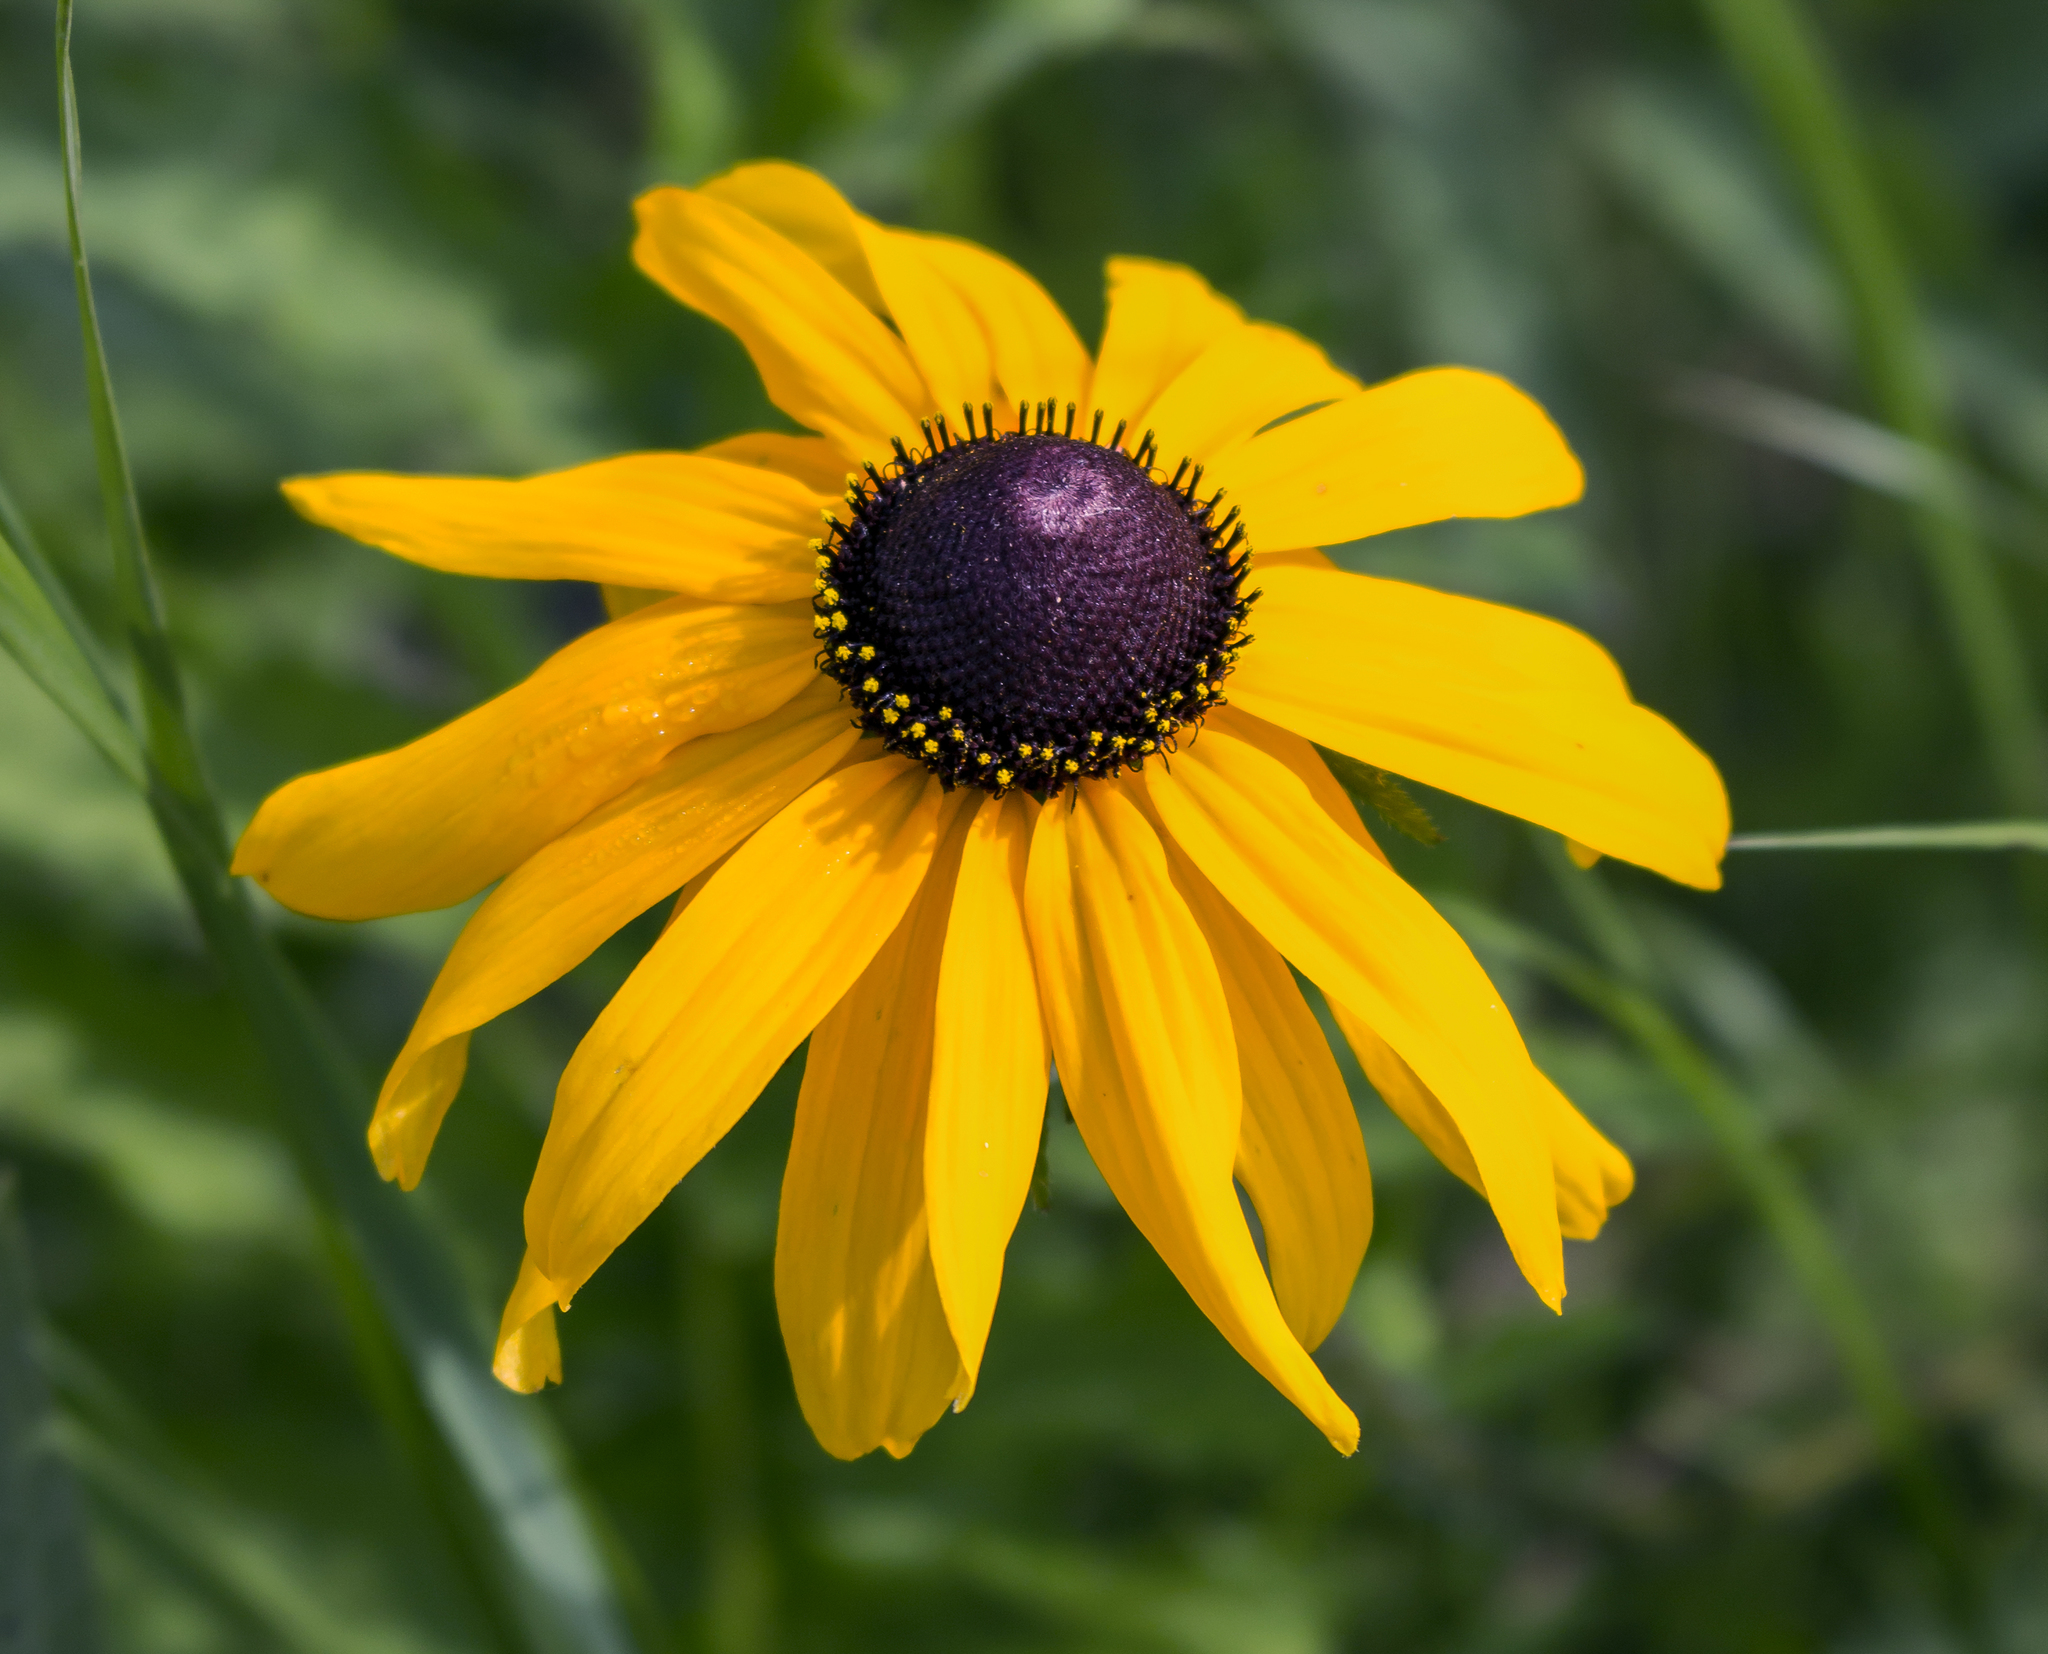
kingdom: Plantae
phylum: Tracheophyta
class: Magnoliopsida
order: Asterales
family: Asteraceae
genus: Rudbeckia
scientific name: Rudbeckia hirta
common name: Black-eyed-susan
